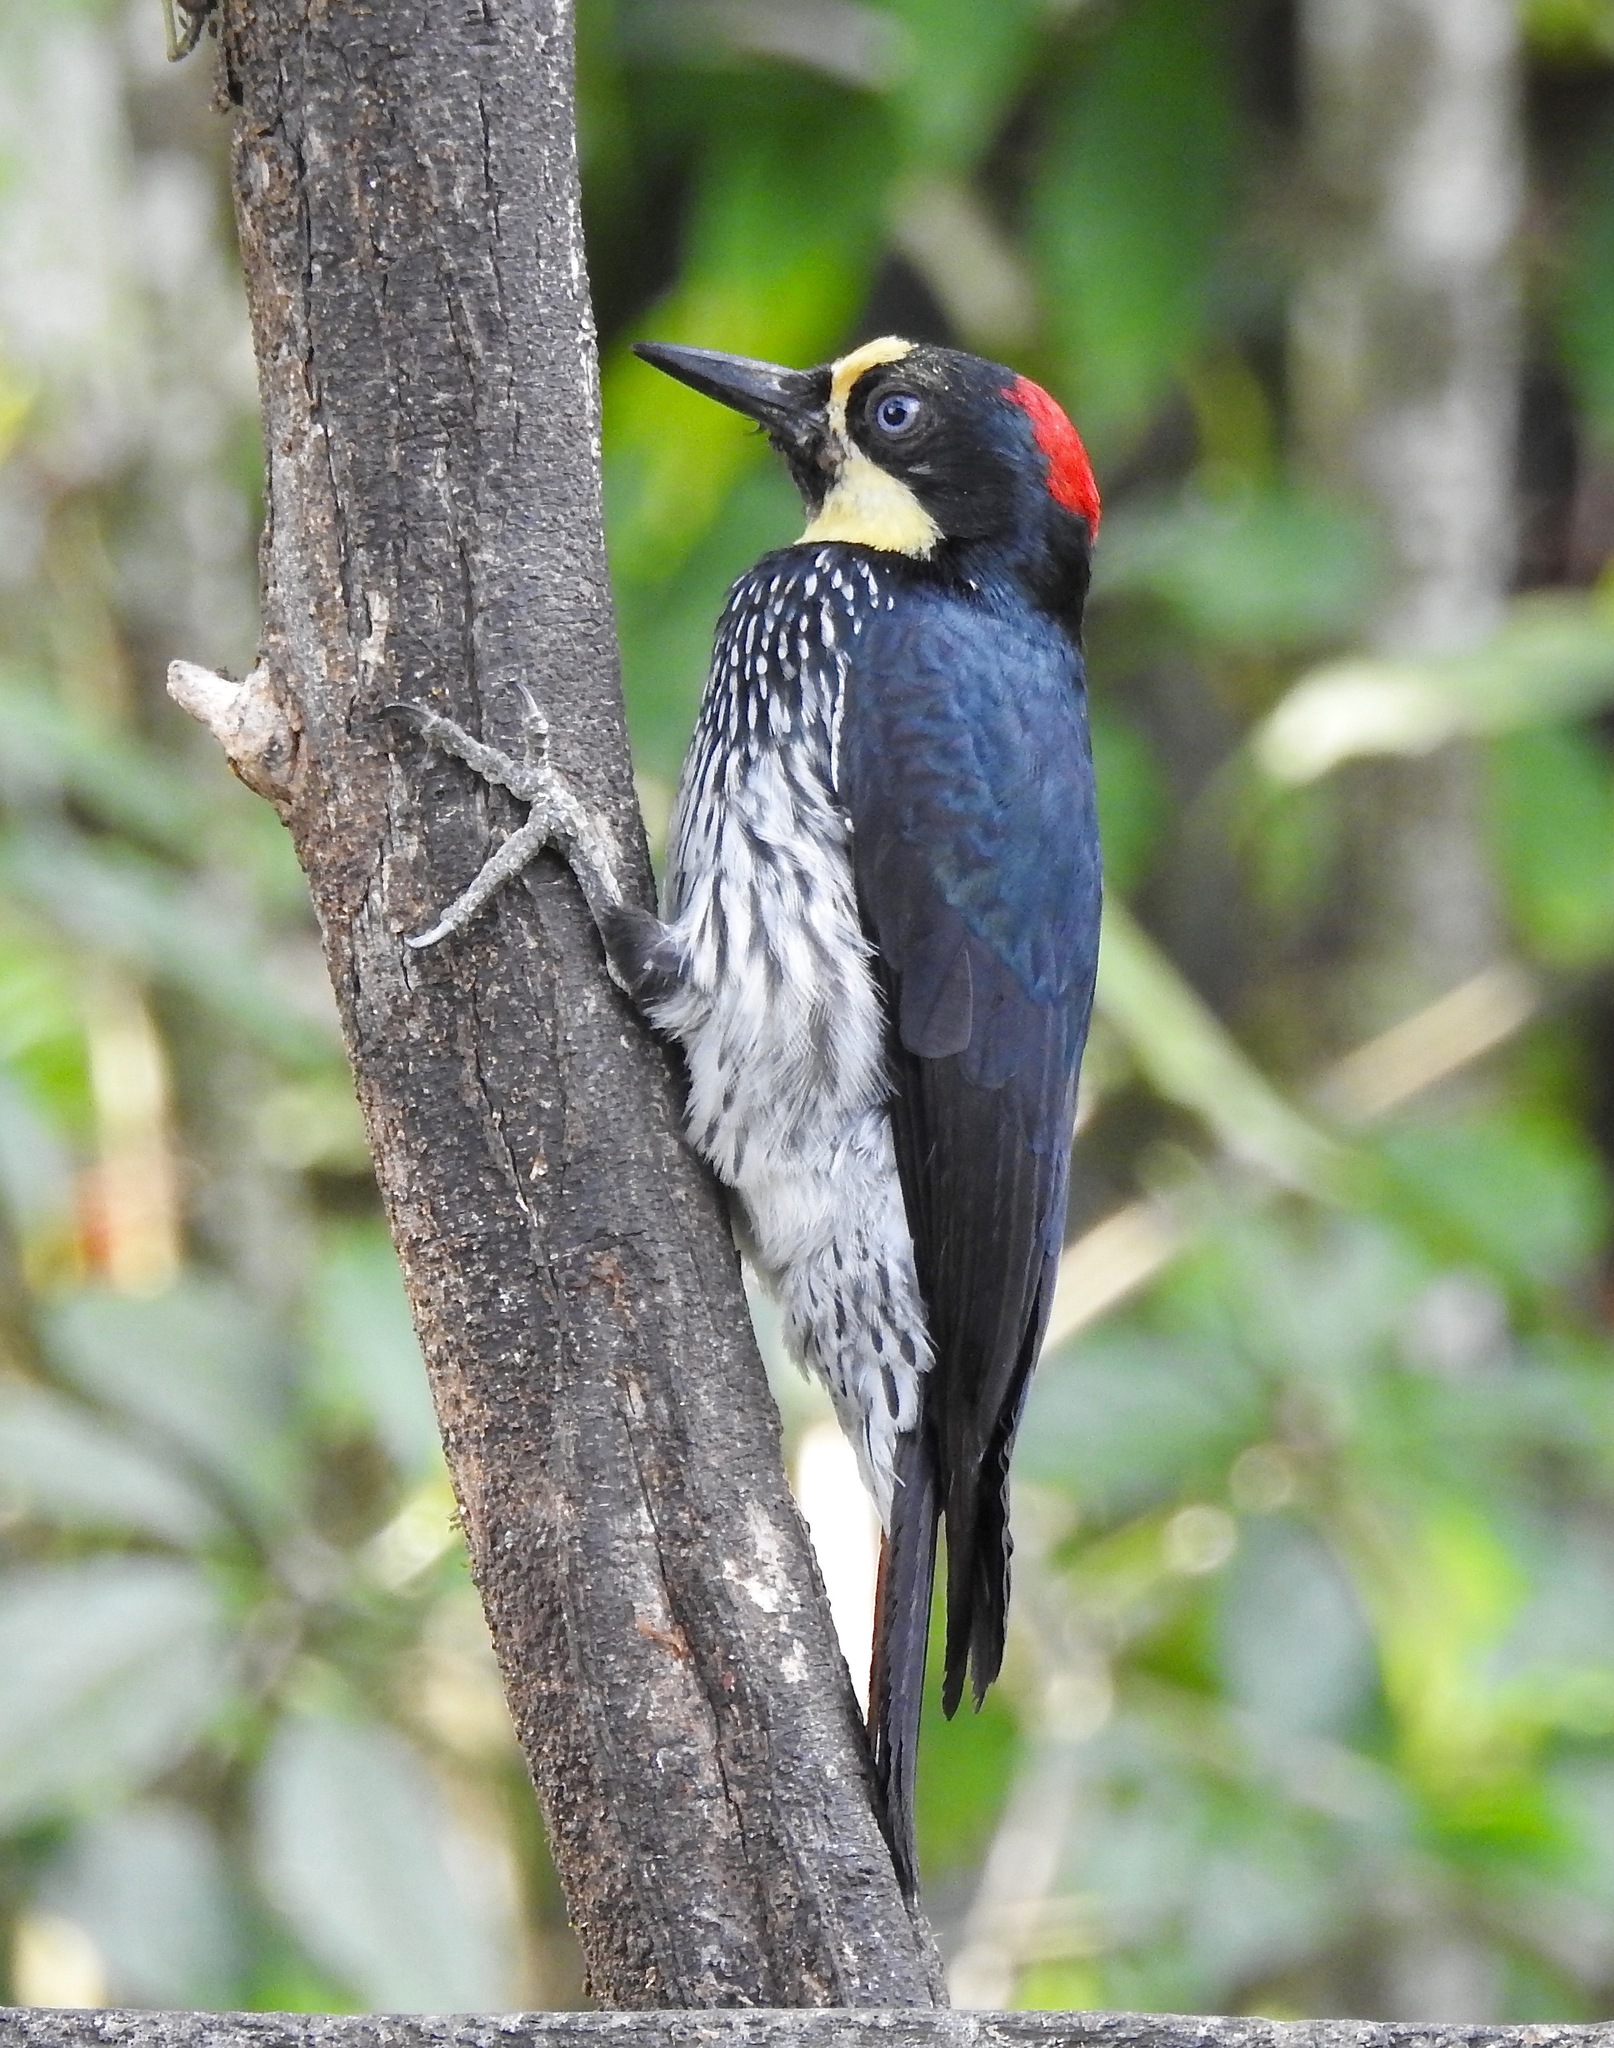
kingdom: Animalia
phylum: Chordata
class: Aves
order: Piciformes
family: Picidae
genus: Melanerpes
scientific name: Melanerpes formicivorus
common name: Acorn woodpecker
